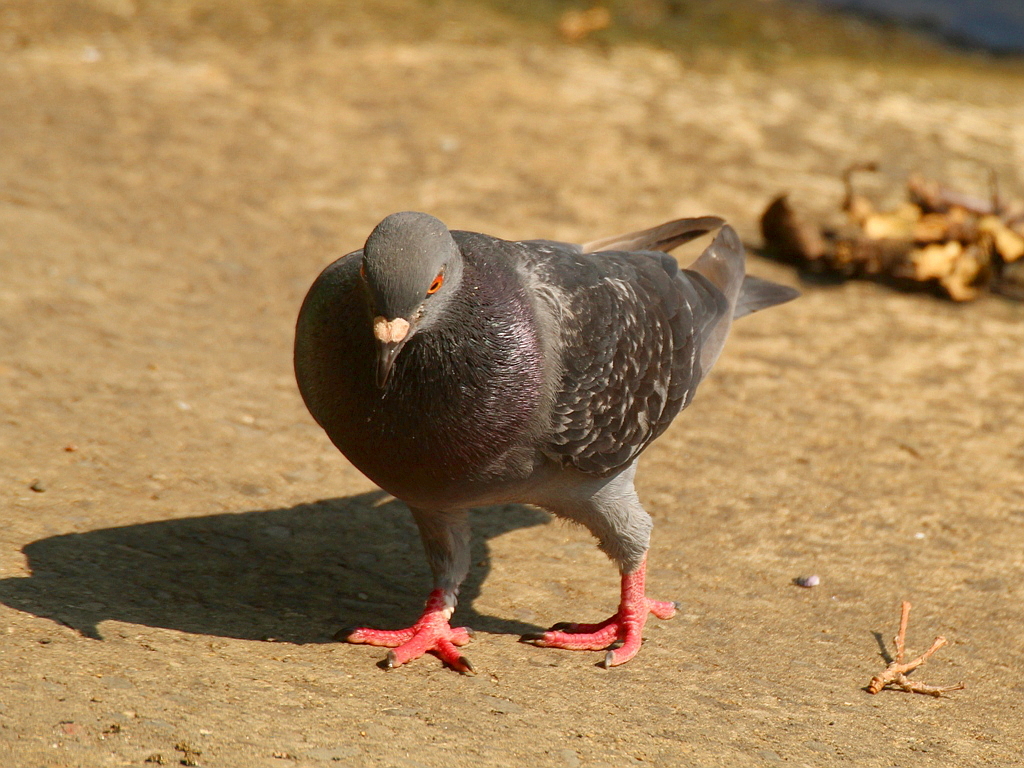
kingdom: Animalia
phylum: Chordata
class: Aves
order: Columbiformes
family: Columbidae
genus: Columba
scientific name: Columba livia
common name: Rock pigeon
